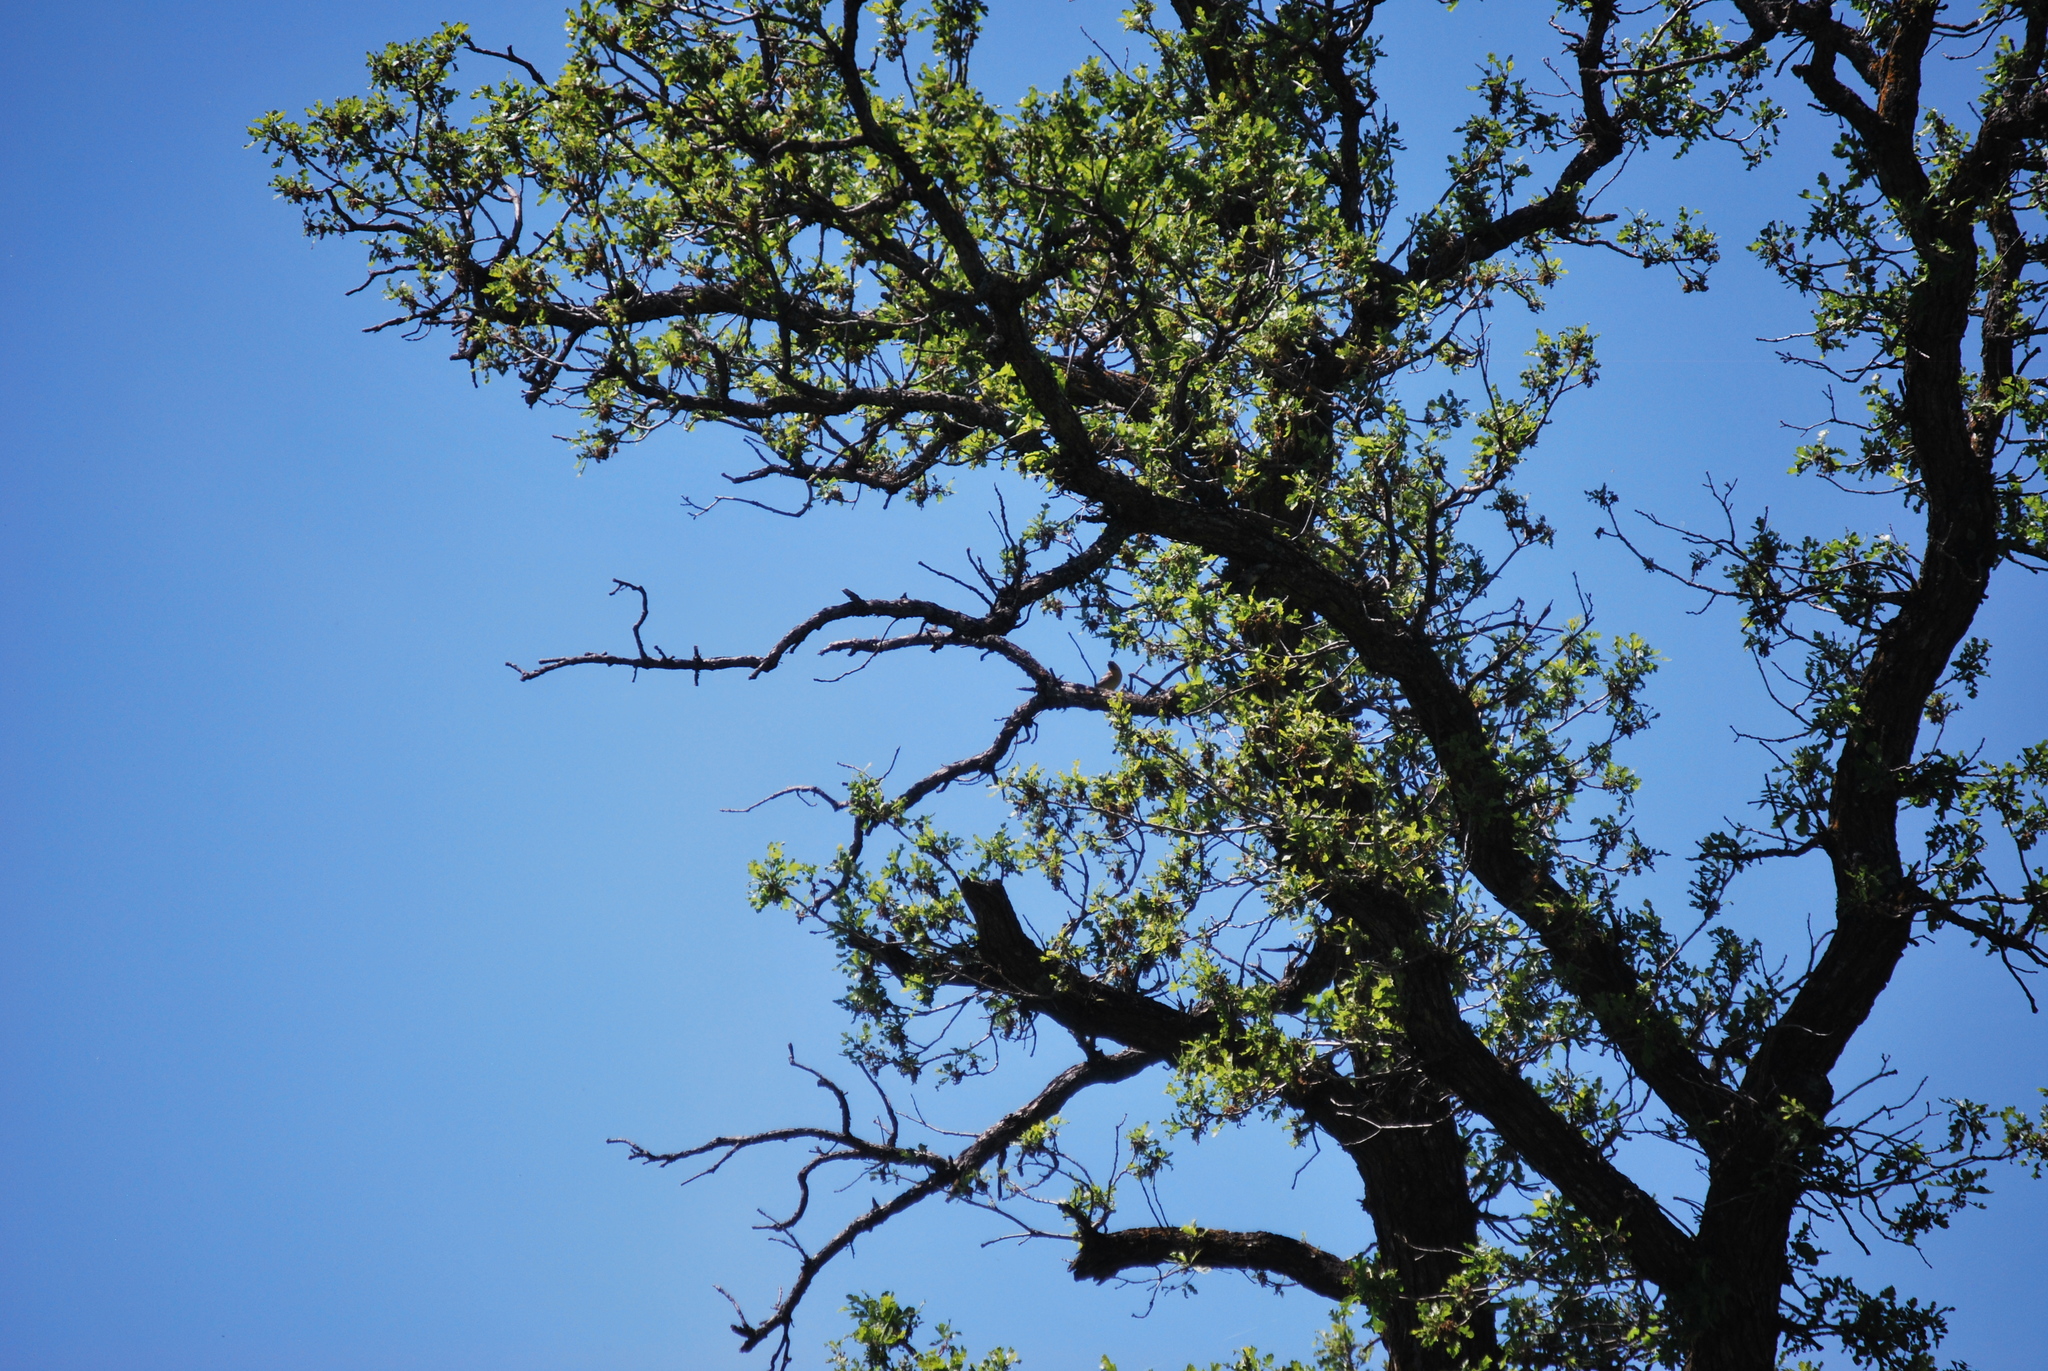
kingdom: Animalia
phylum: Chordata
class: Aves
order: Passeriformes
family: Icteridae
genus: Icterus
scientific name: Icterus bullockii
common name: Bullock's oriole
